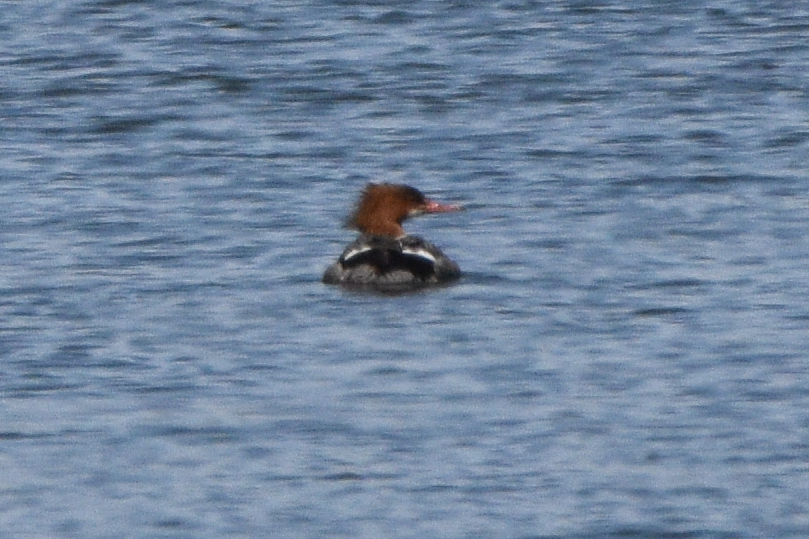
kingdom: Animalia
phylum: Chordata
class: Aves
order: Anseriformes
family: Anatidae
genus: Mergus
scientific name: Mergus merganser
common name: Common merganser
